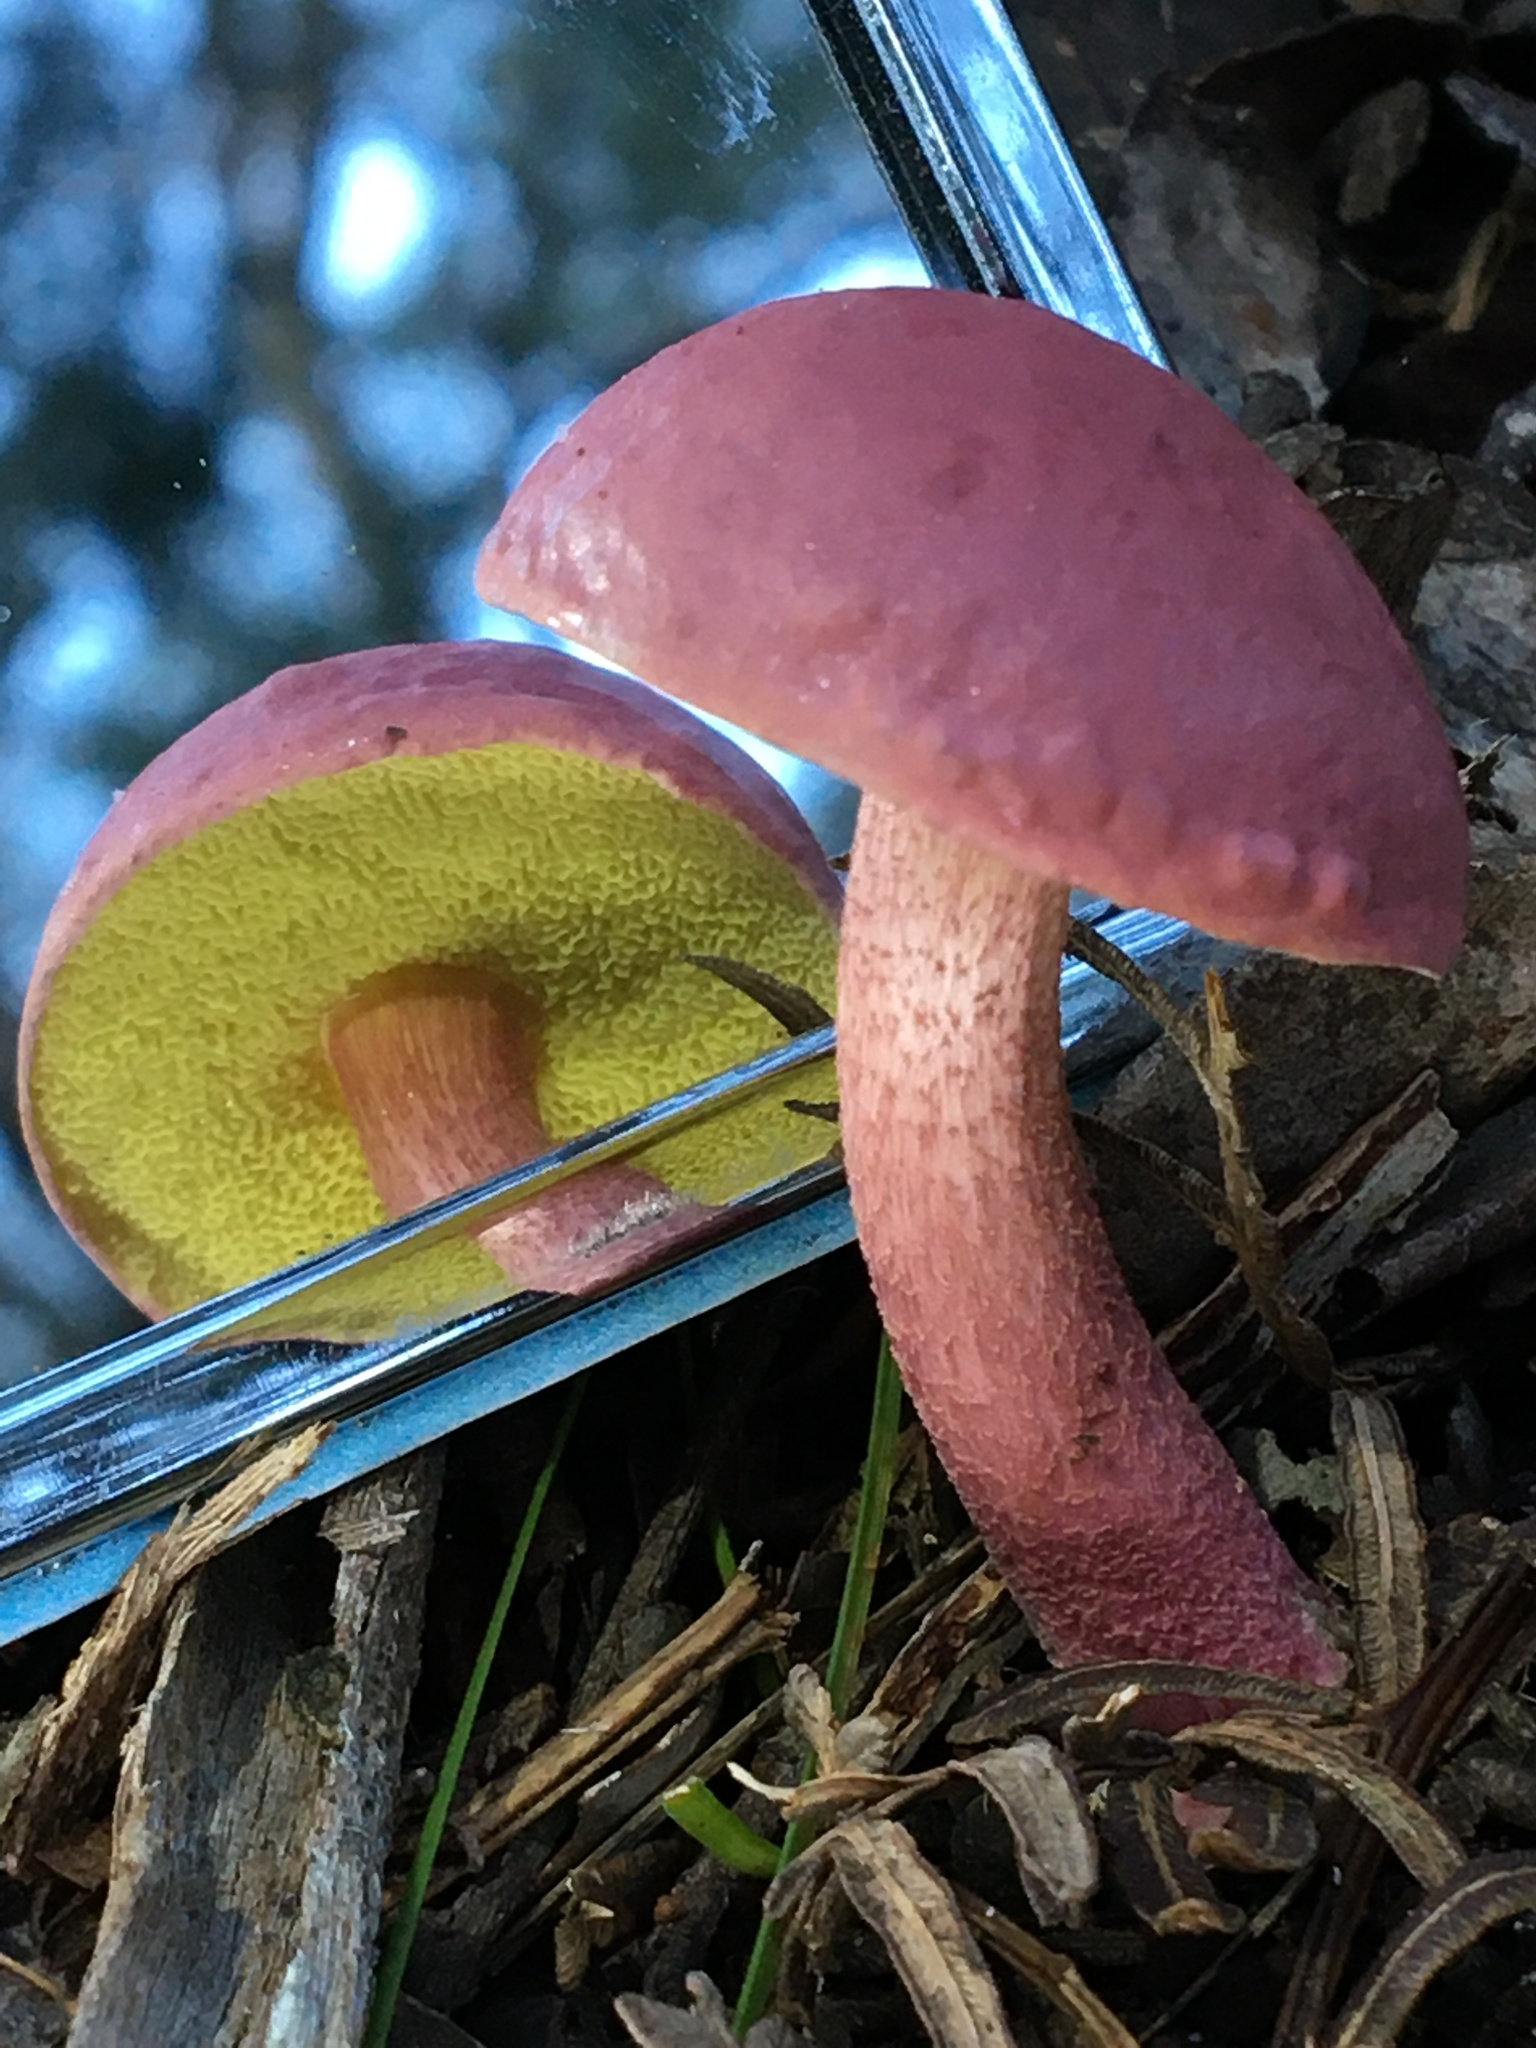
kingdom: Fungi
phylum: Basidiomycota
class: Agaricomycetes
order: Boletales
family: Boletaceae
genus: Boletellus
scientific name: Boletellus obscurecoccineus
